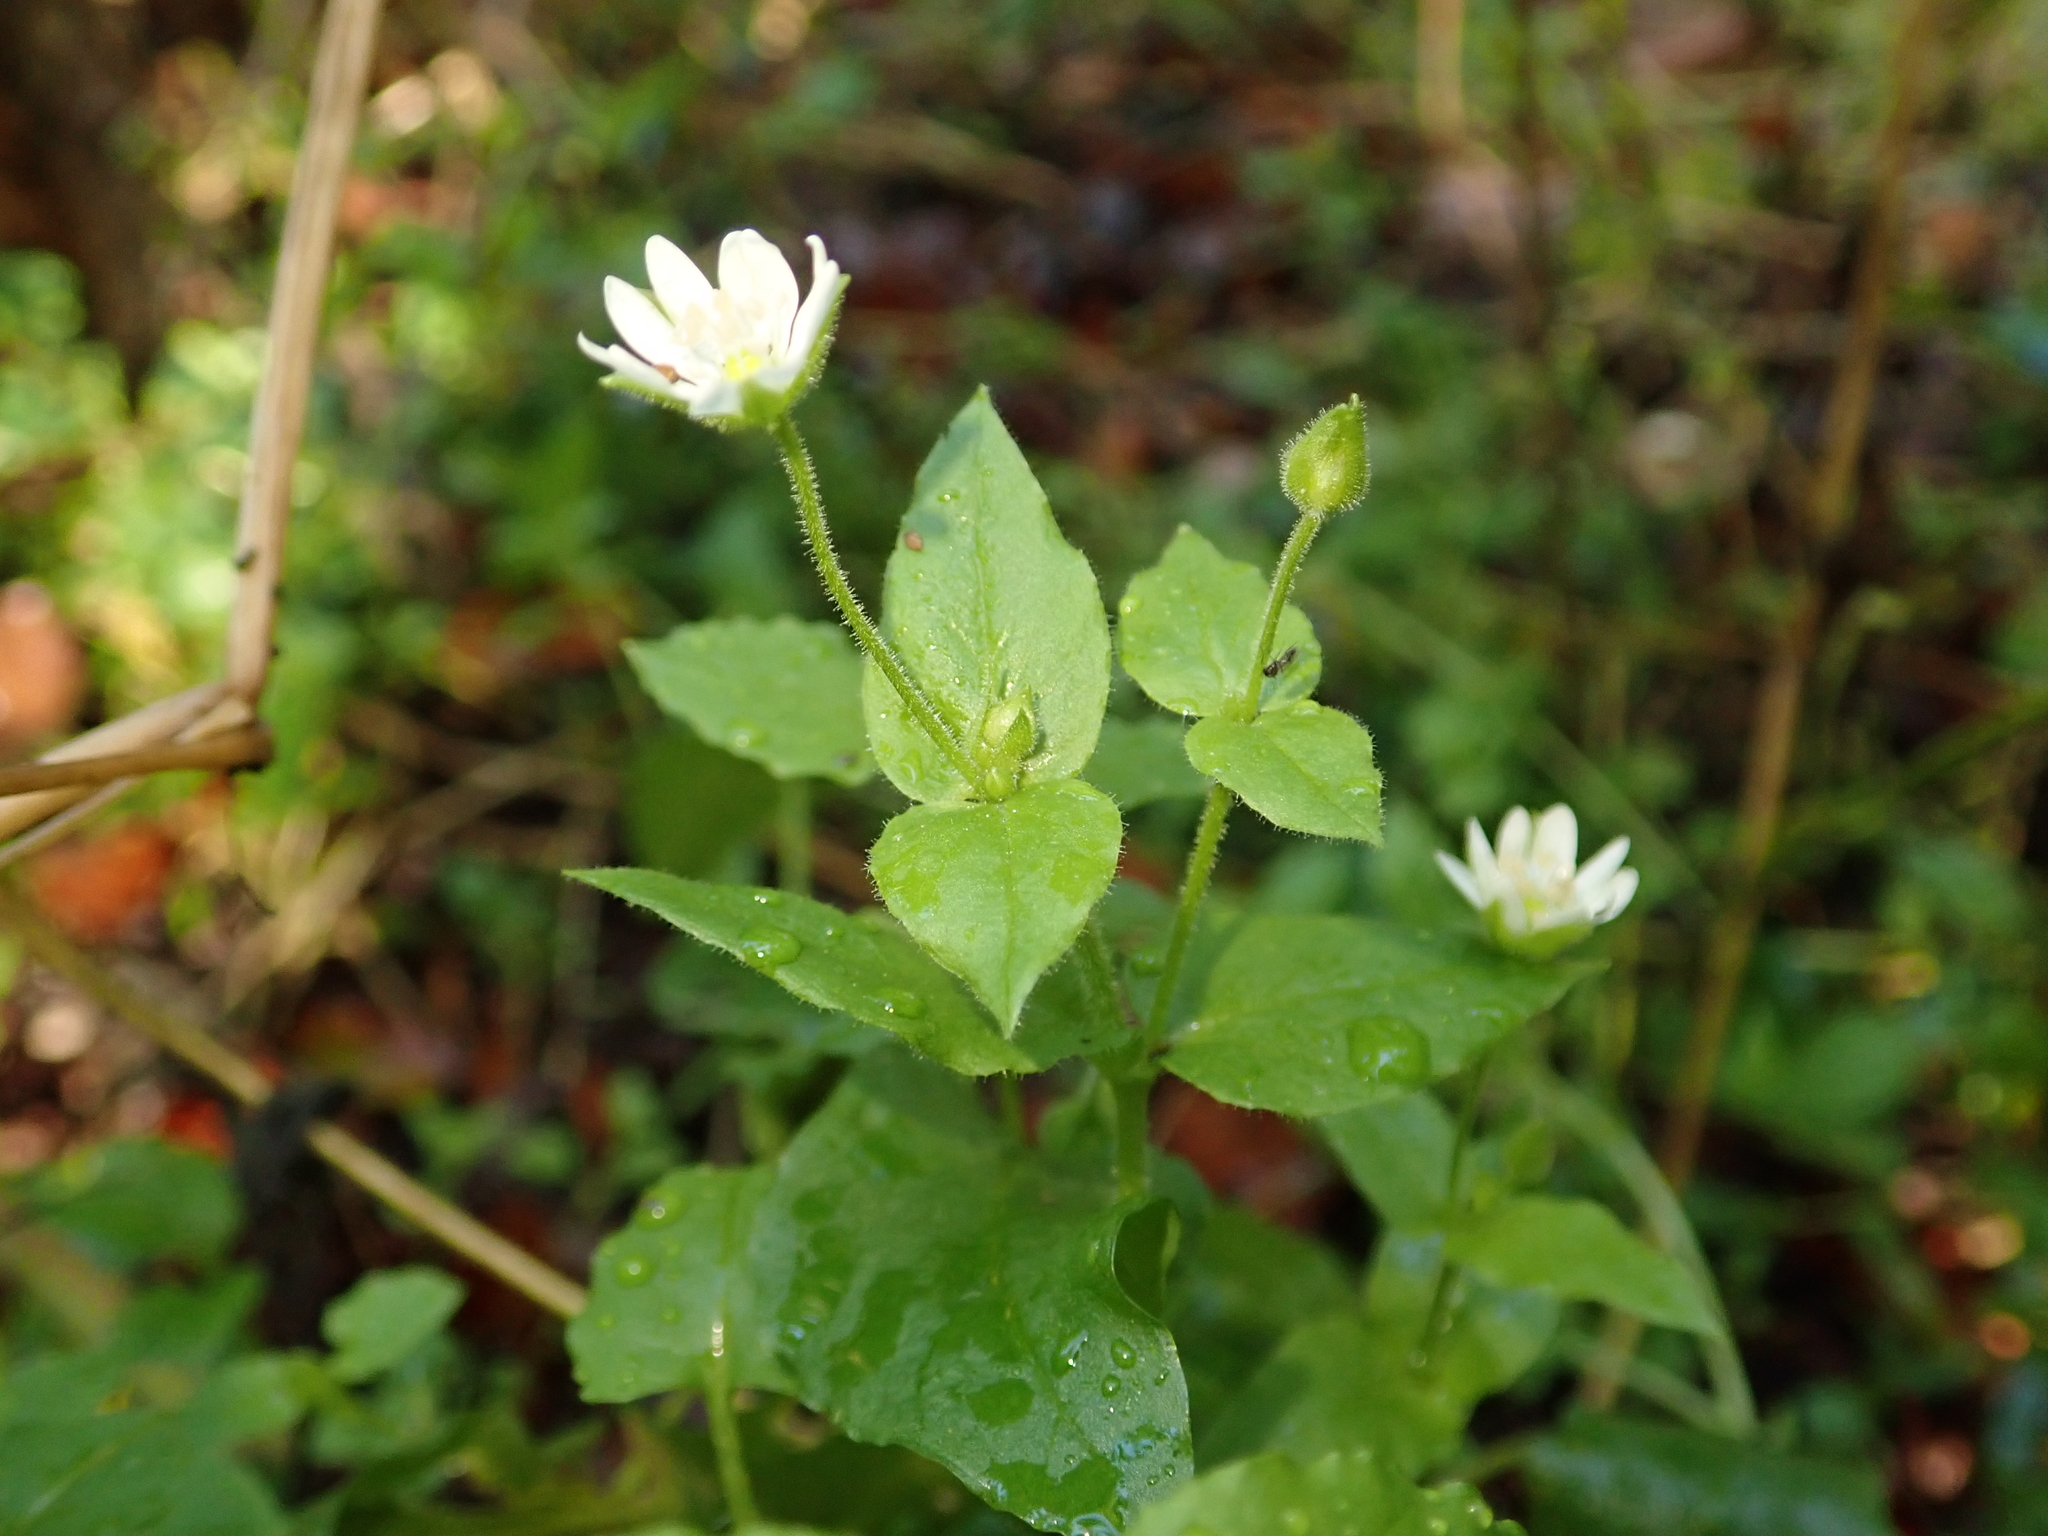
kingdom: Plantae
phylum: Tracheophyta
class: Magnoliopsida
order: Caryophyllales
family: Caryophyllaceae
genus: Stellaria
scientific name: Stellaria aquatica
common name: Water chickweed
